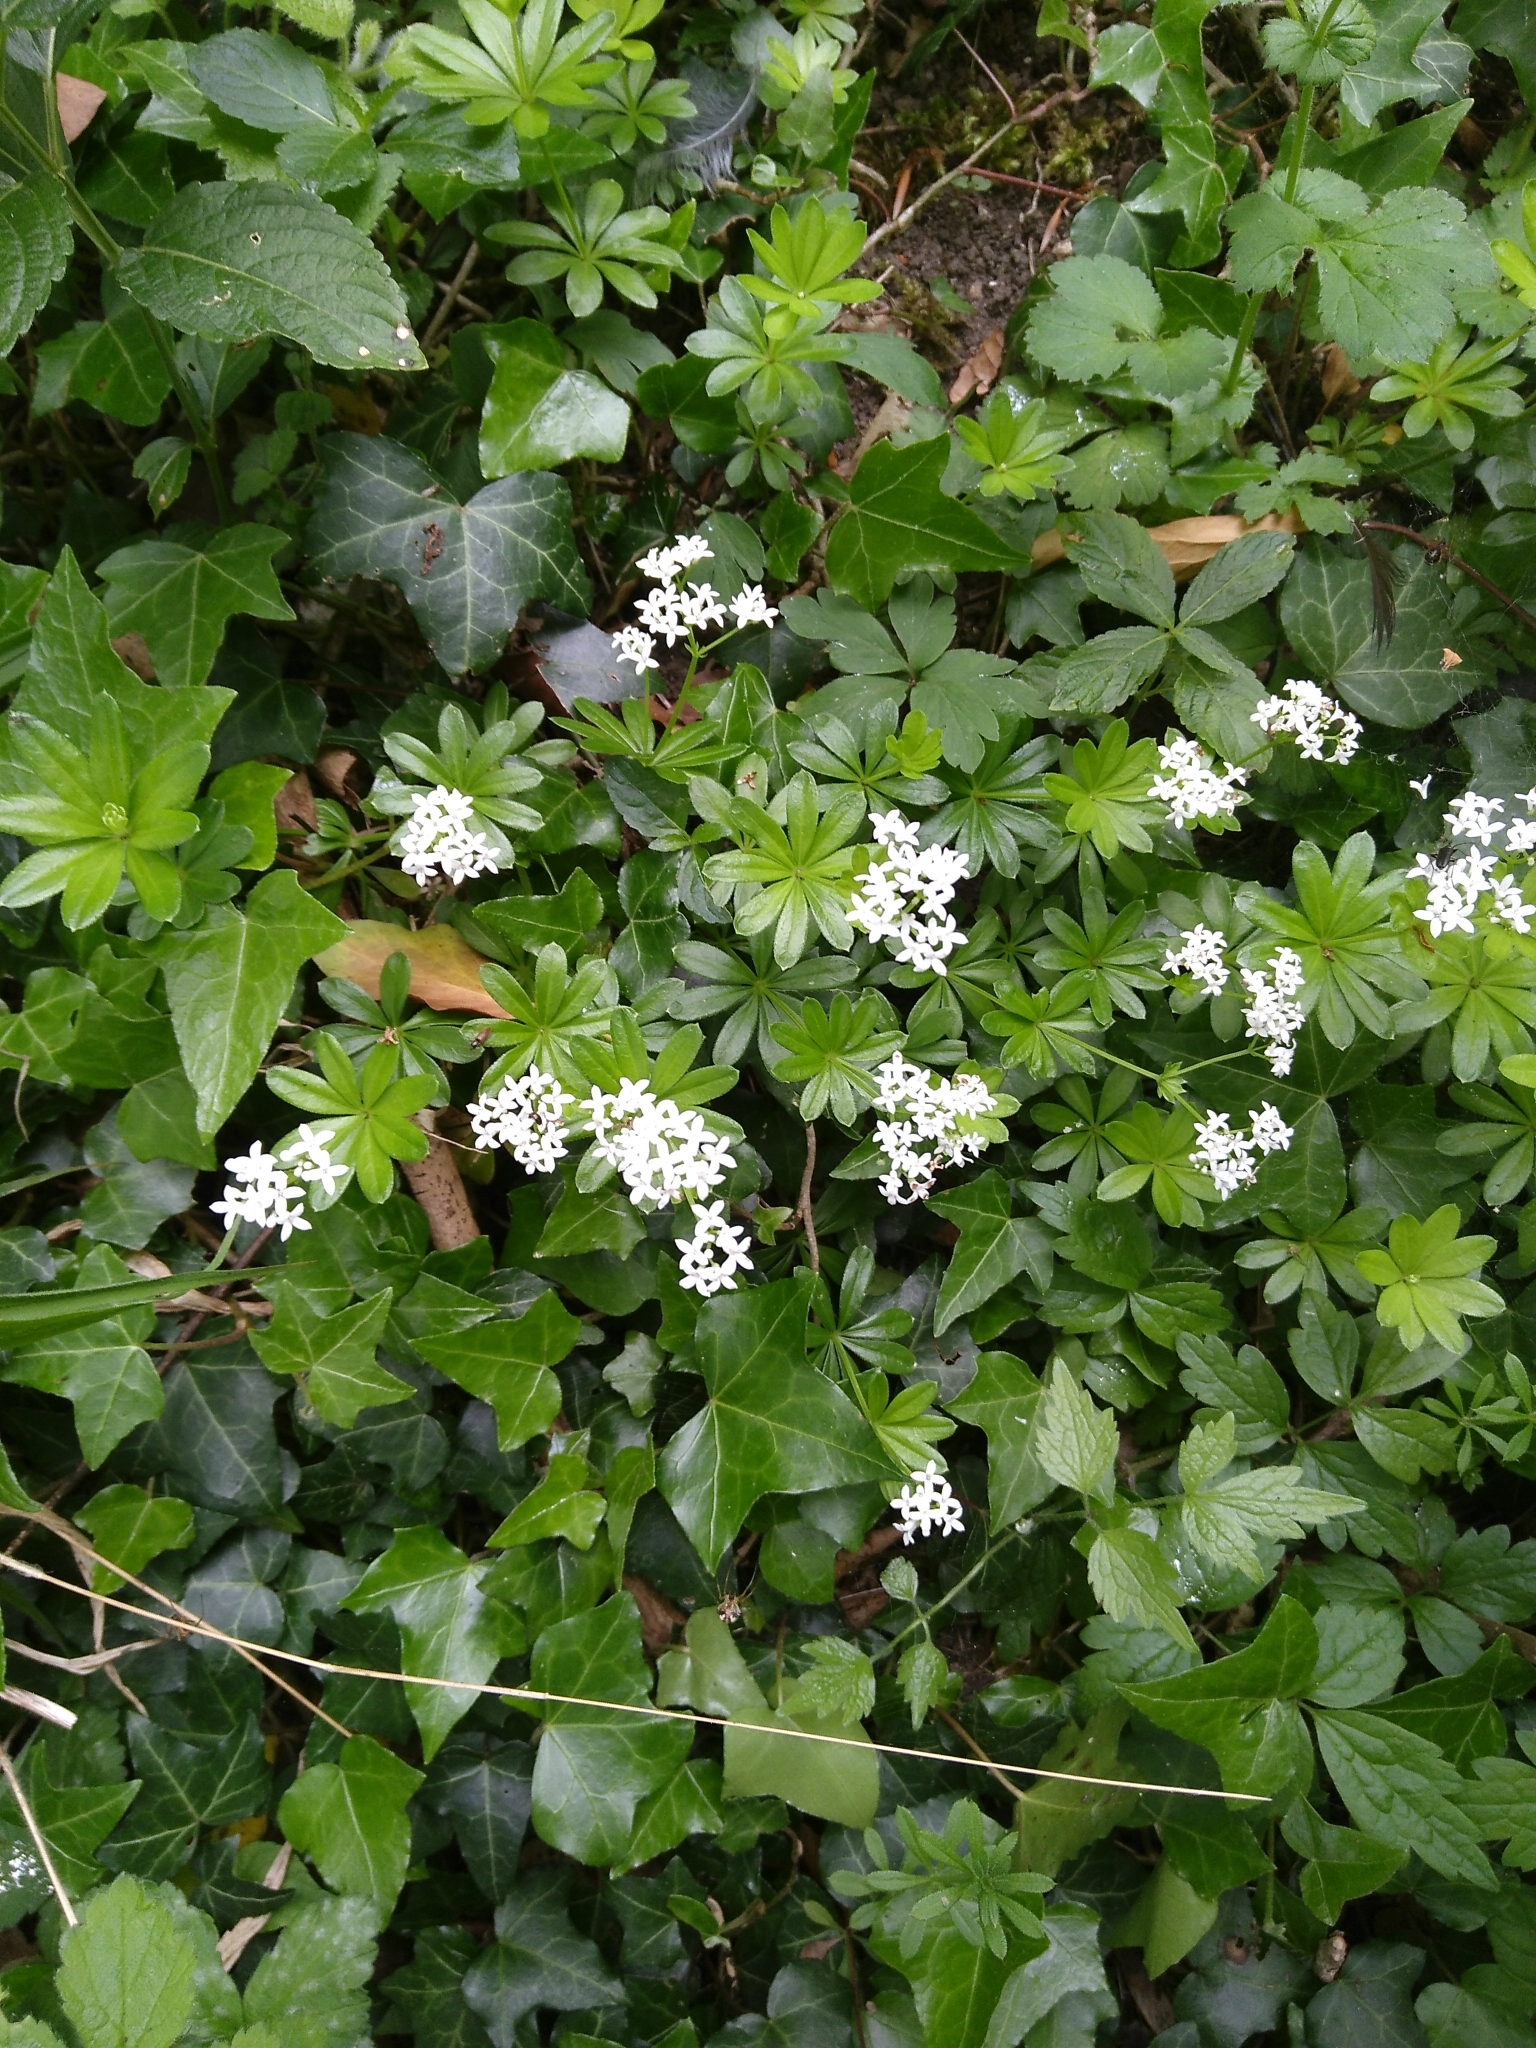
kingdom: Plantae
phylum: Tracheophyta
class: Magnoliopsida
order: Gentianales
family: Rubiaceae
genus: Galium
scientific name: Galium odoratum
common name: Sweet woodruff
